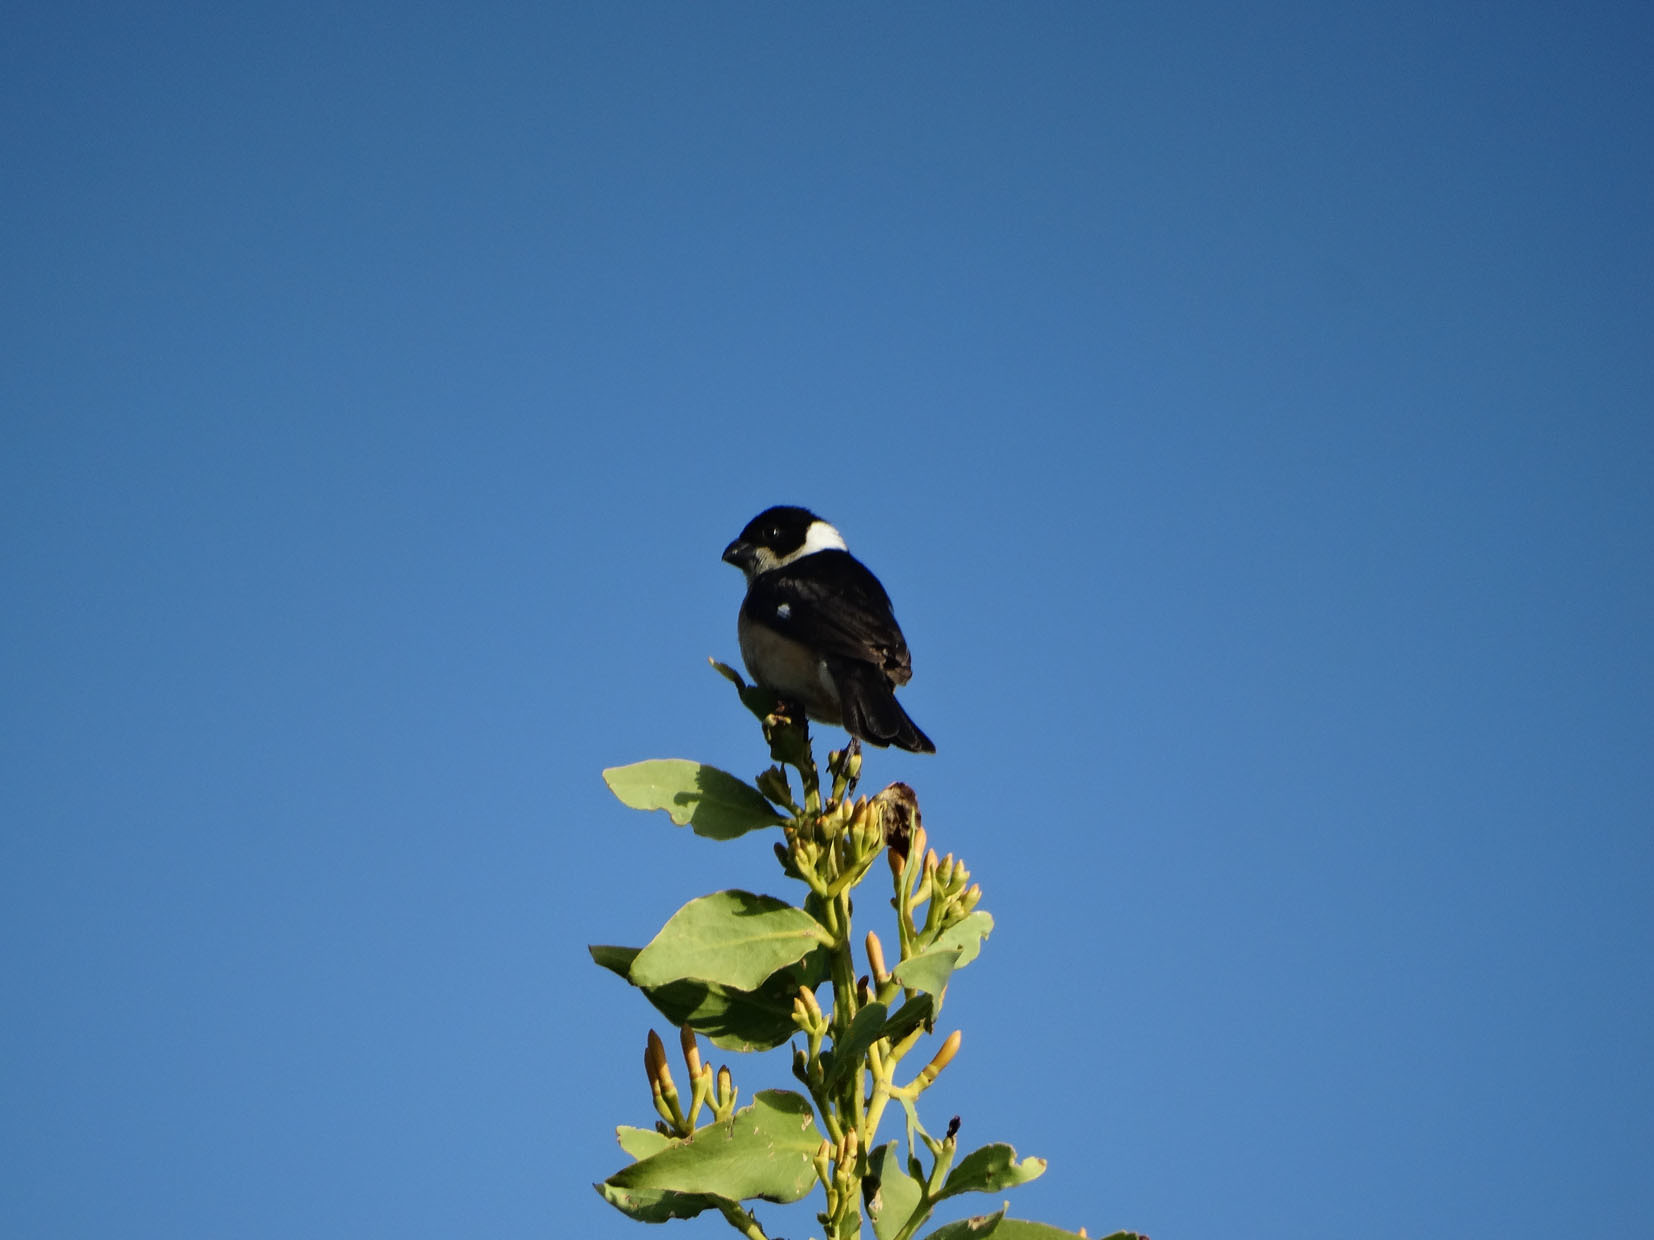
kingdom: Animalia
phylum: Chordata
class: Aves
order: Passeriformes
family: Thraupidae
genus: Sporophila
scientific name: Sporophila torqueola
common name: White-collared seedeater
